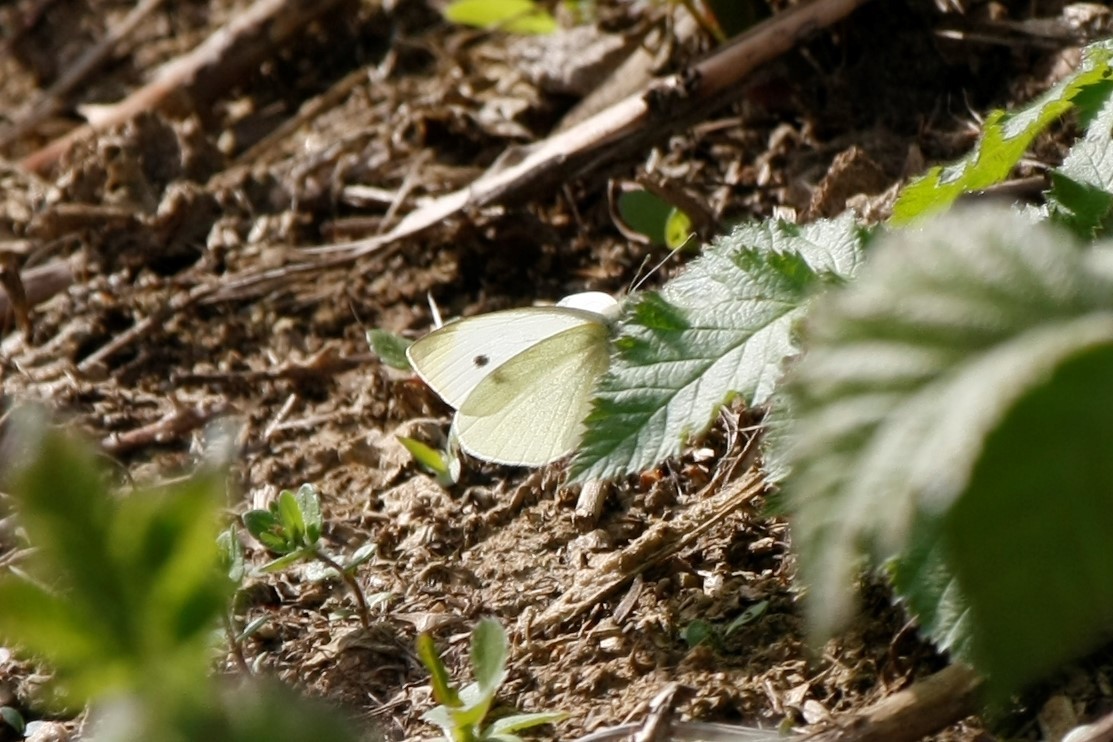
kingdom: Animalia
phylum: Arthropoda
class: Insecta
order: Lepidoptera
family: Pieridae
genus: Pieris
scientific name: Pieris rapae
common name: Small white
